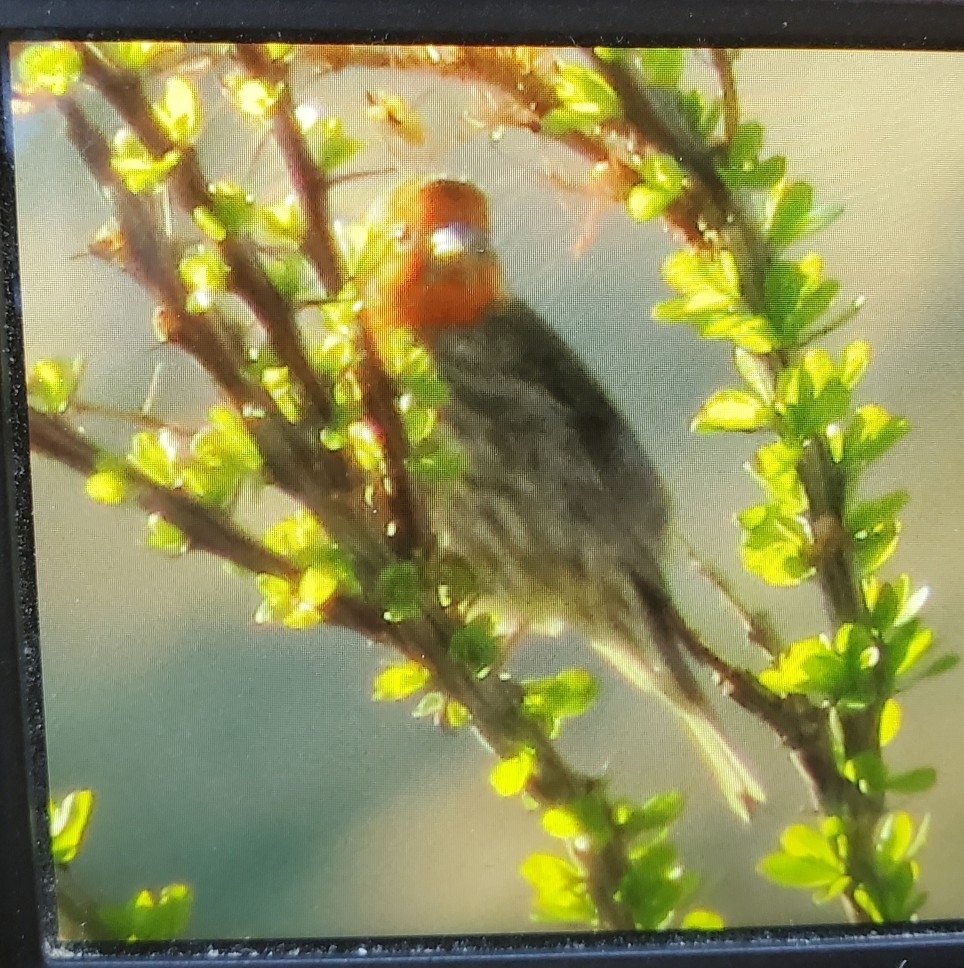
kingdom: Animalia
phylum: Chordata
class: Aves
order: Passeriformes
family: Fringillidae
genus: Haemorhous
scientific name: Haemorhous mexicanus
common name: House finch
